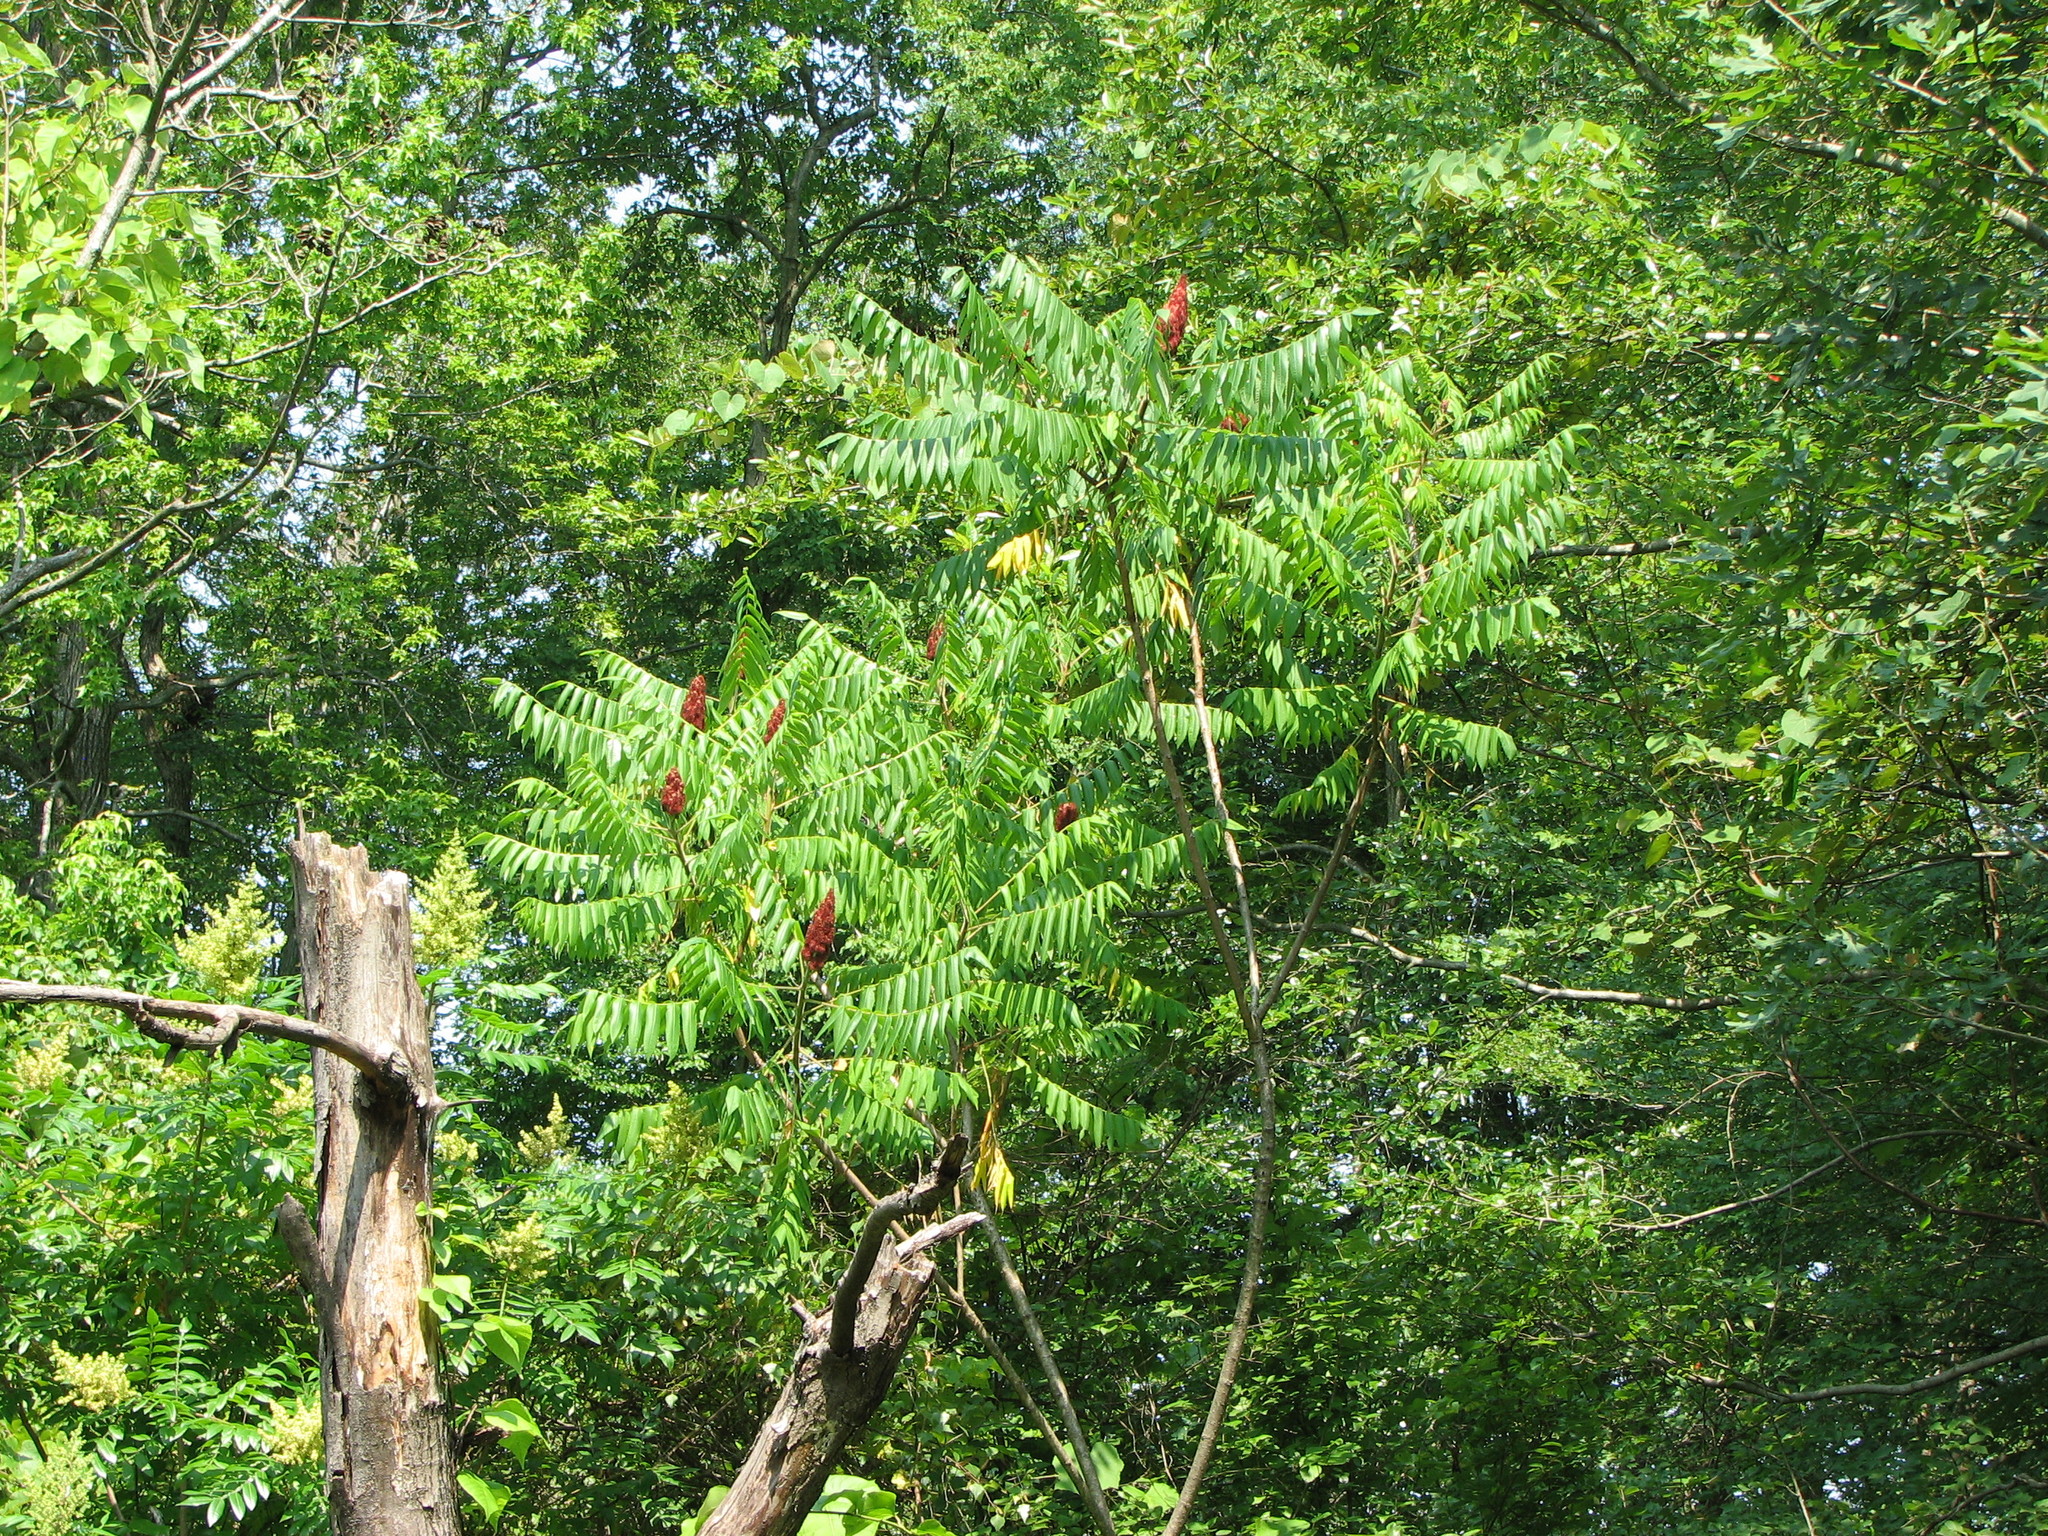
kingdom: Plantae
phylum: Tracheophyta
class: Magnoliopsida
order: Sapindales
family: Anacardiaceae
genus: Rhus
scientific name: Rhus typhina
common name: Staghorn sumac
